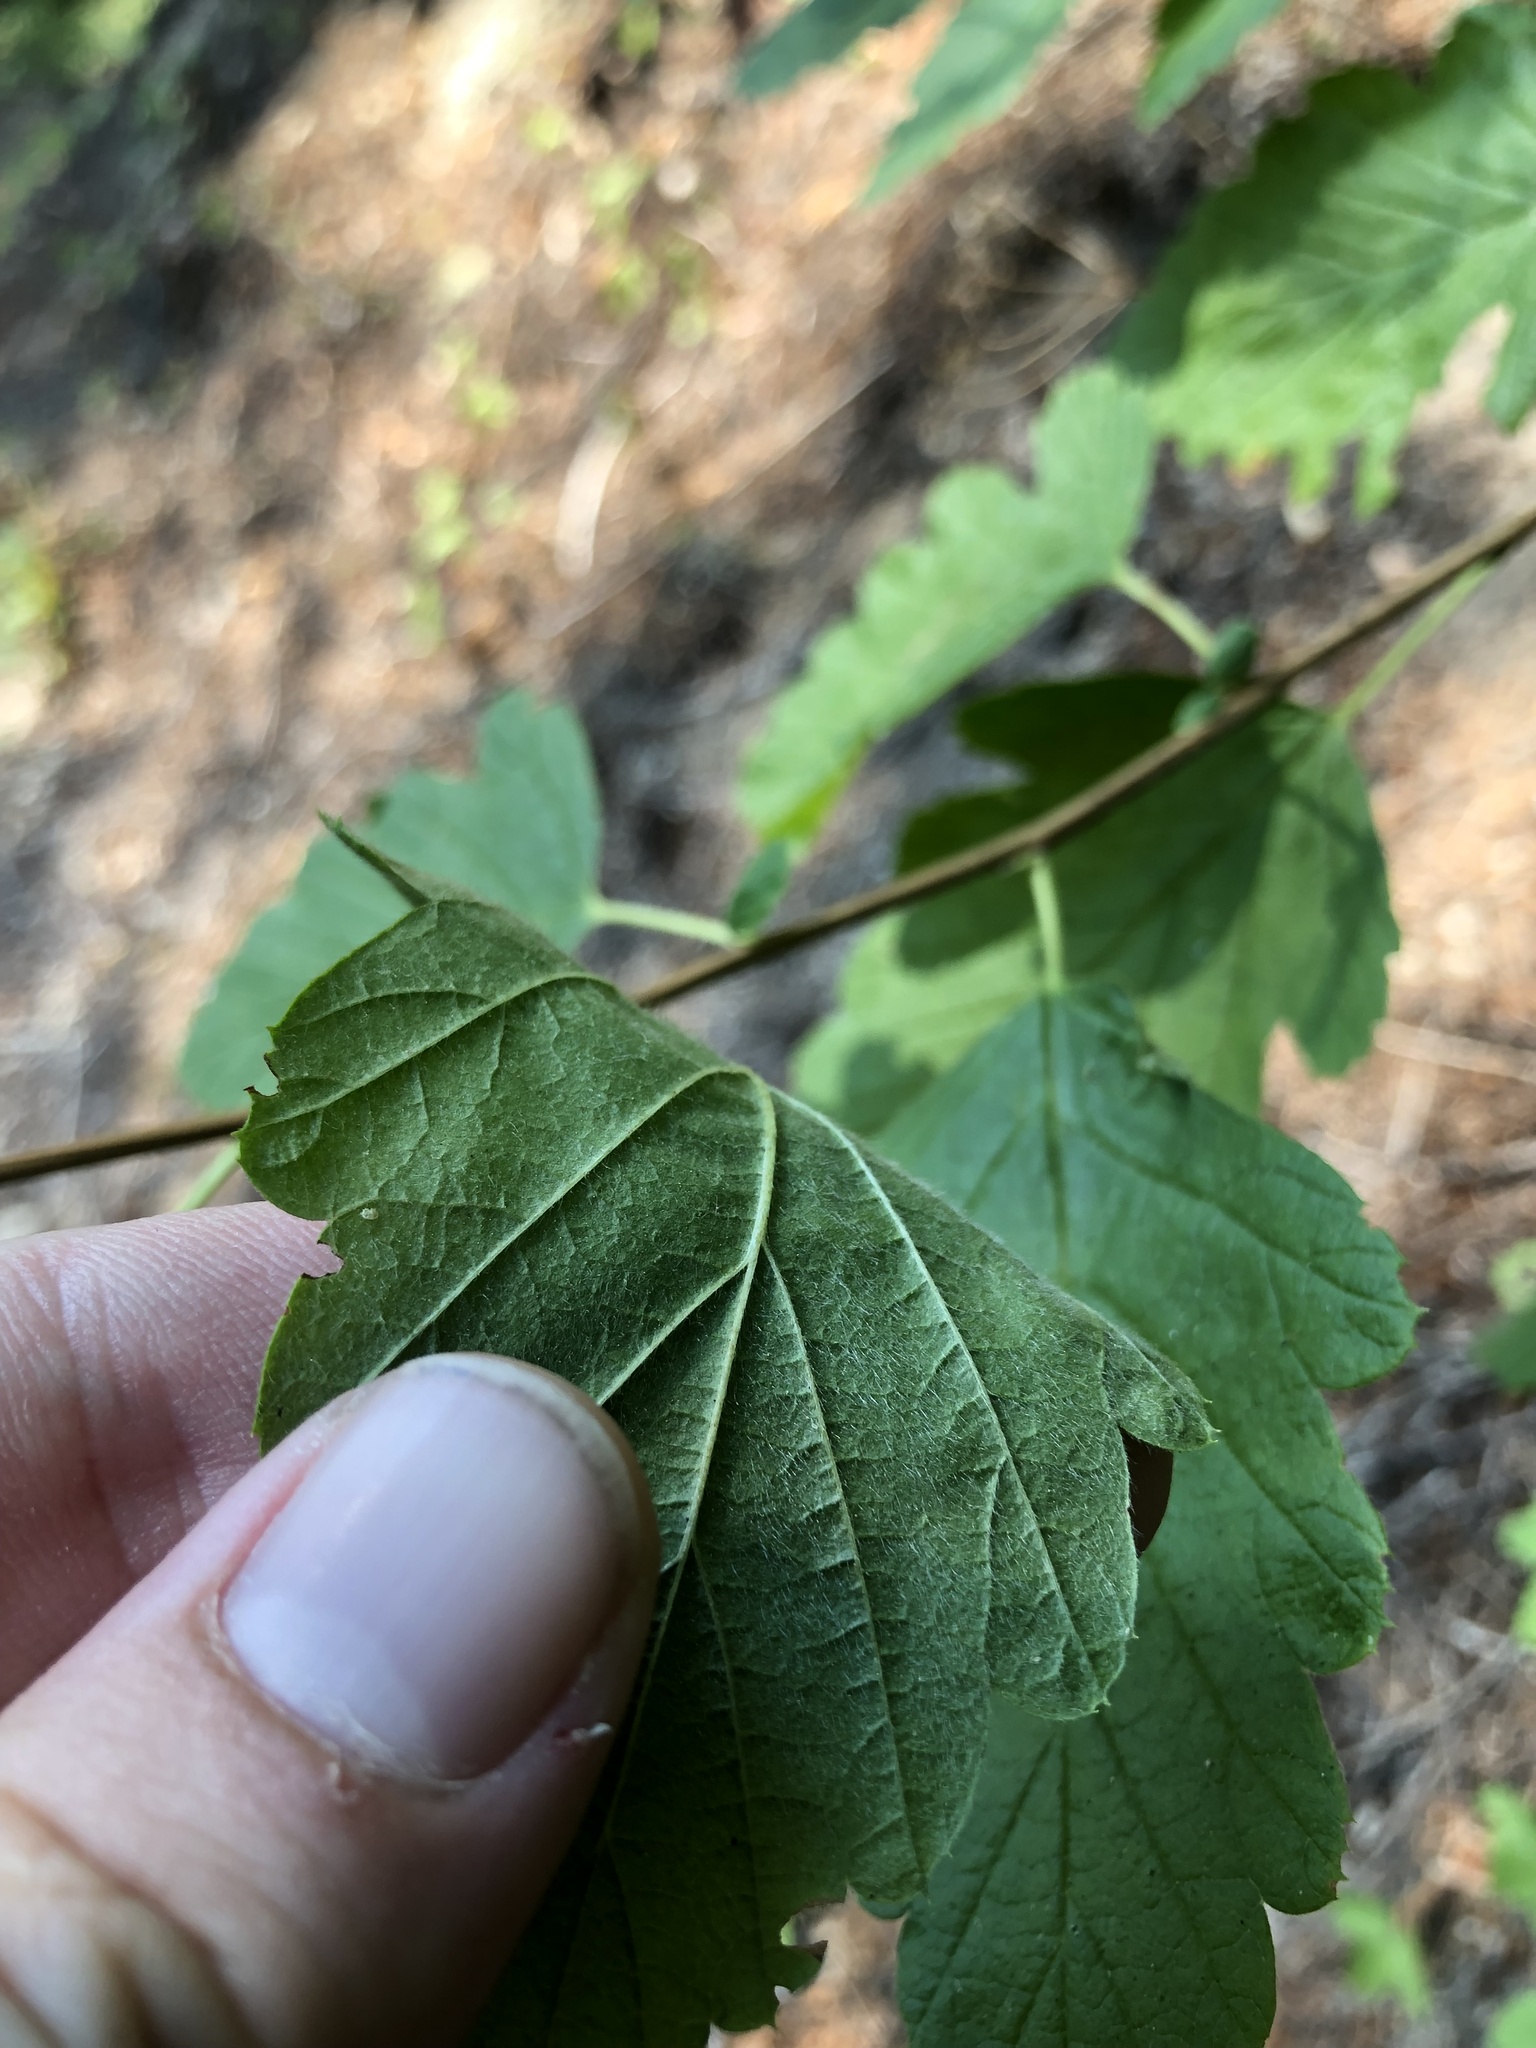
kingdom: Plantae
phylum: Tracheophyta
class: Magnoliopsida
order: Rosales
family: Rosaceae
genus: Holodiscus
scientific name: Holodiscus discolor
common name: Oceanspray
